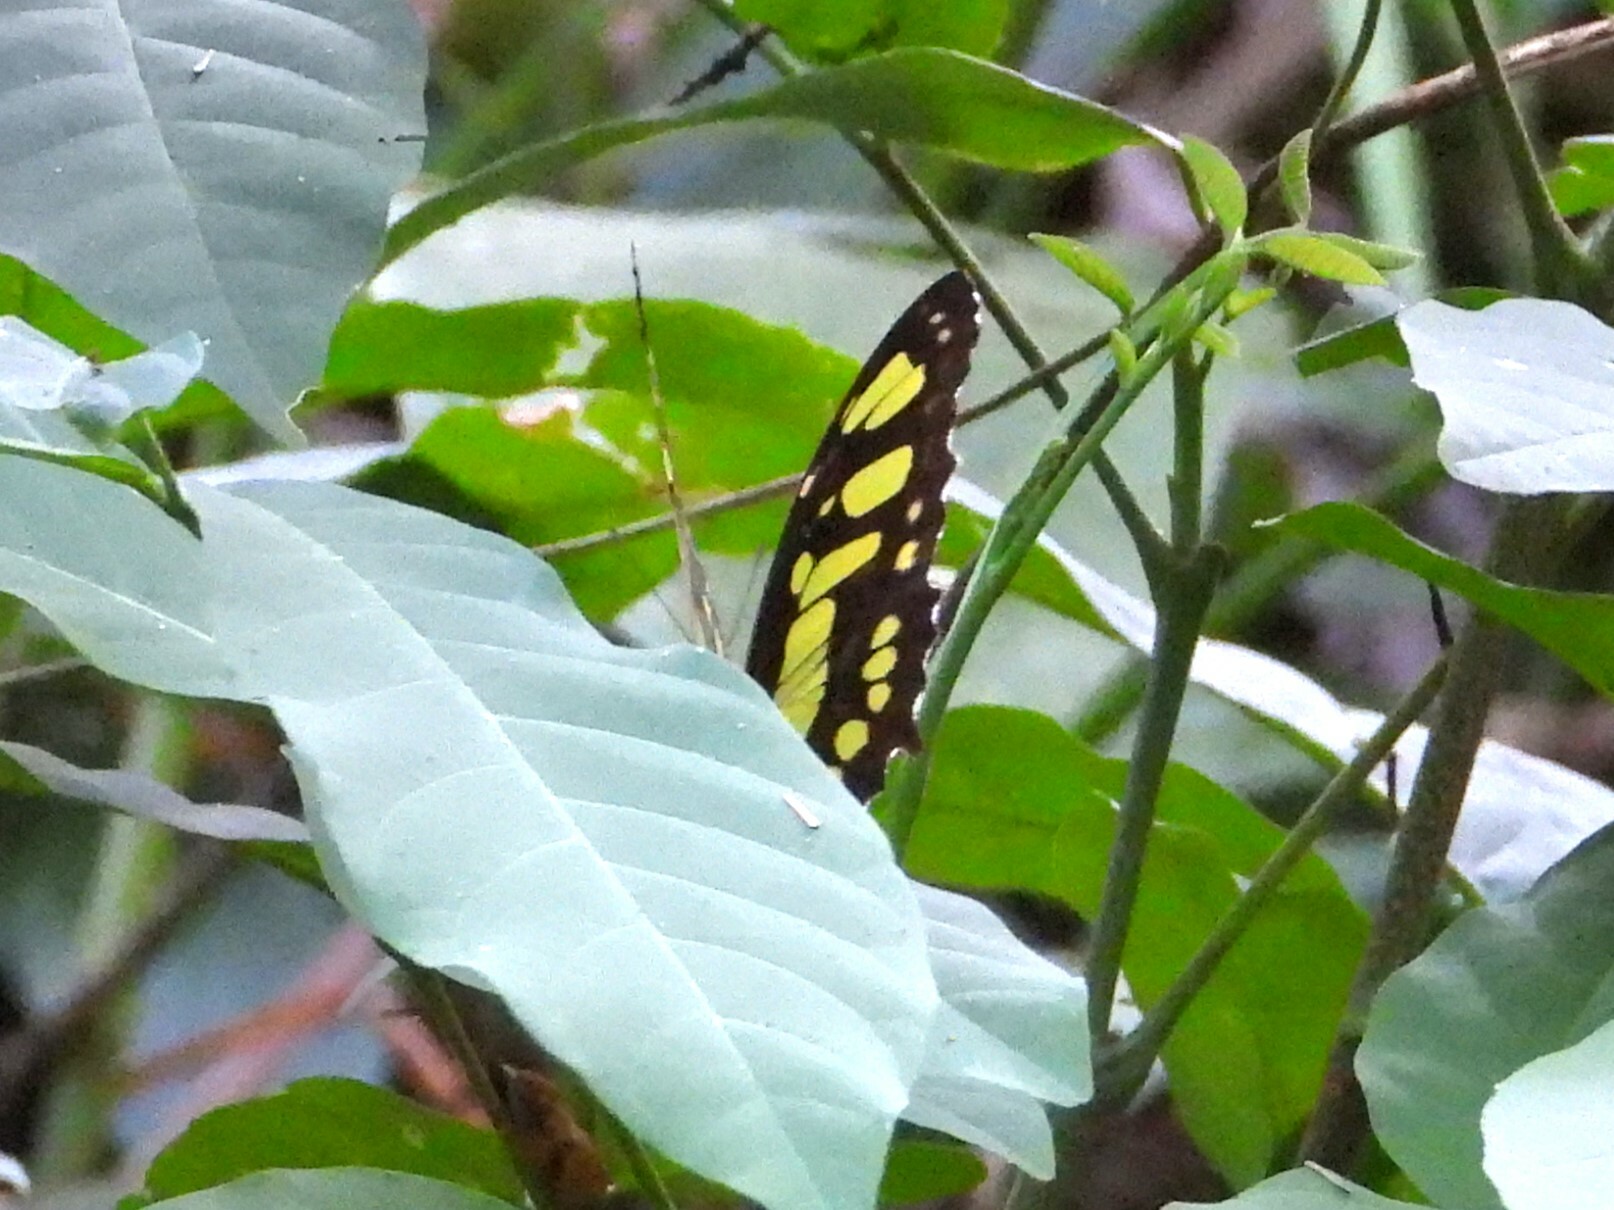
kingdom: Animalia
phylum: Arthropoda
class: Insecta
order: Lepidoptera
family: Nymphalidae
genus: Siproeta
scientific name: Siproeta stelenes
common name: Malachite
